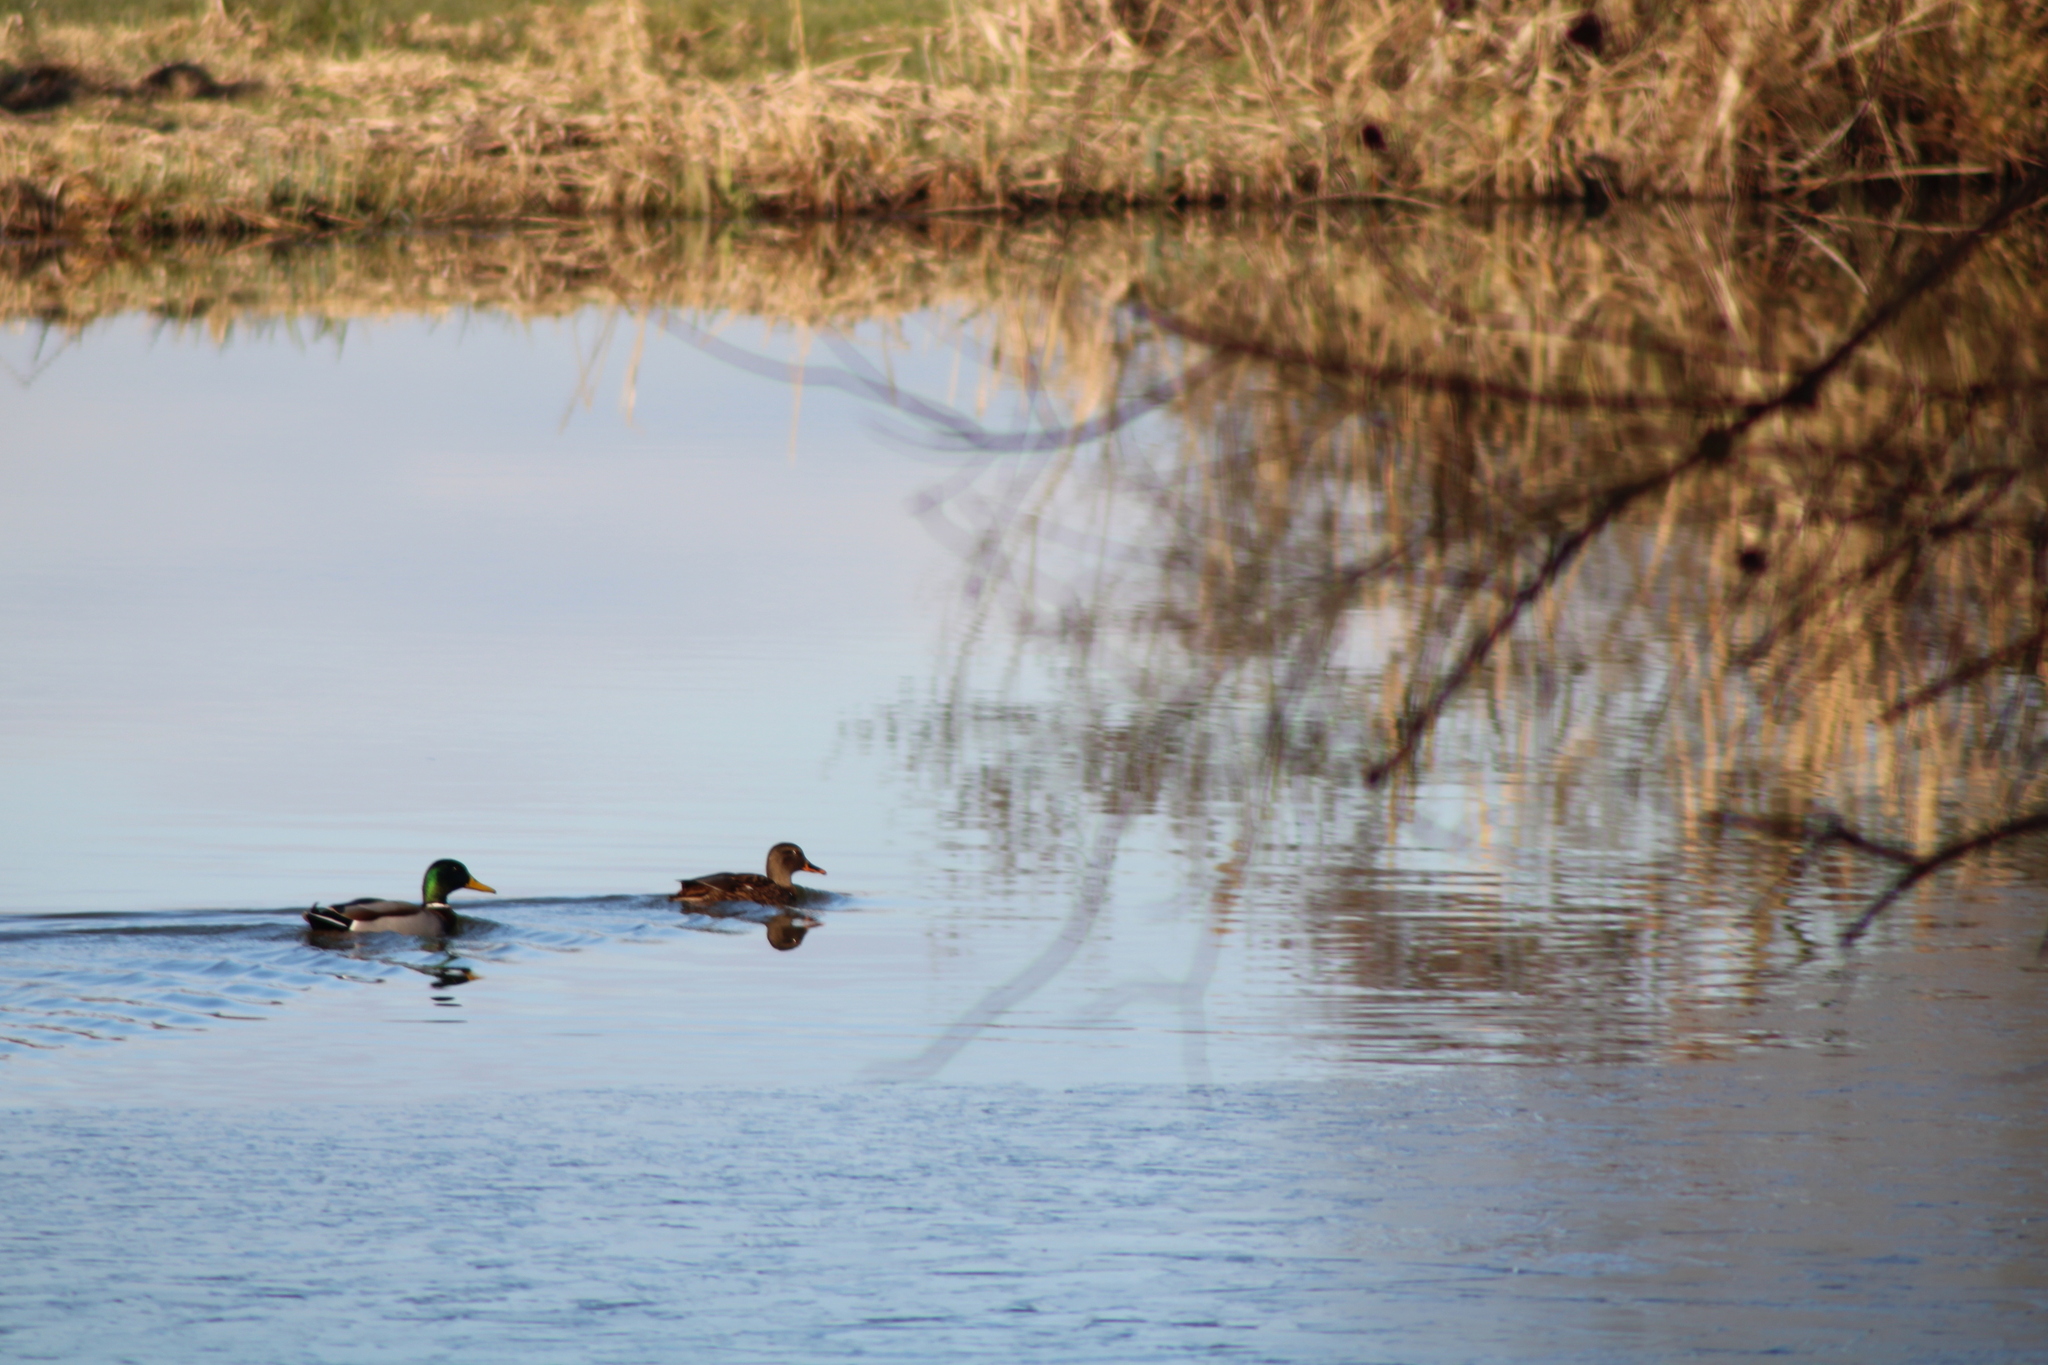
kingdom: Animalia
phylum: Chordata
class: Aves
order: Anseriformes
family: Anatidae
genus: Anas
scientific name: Anas platyrhynchos
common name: Mallard
